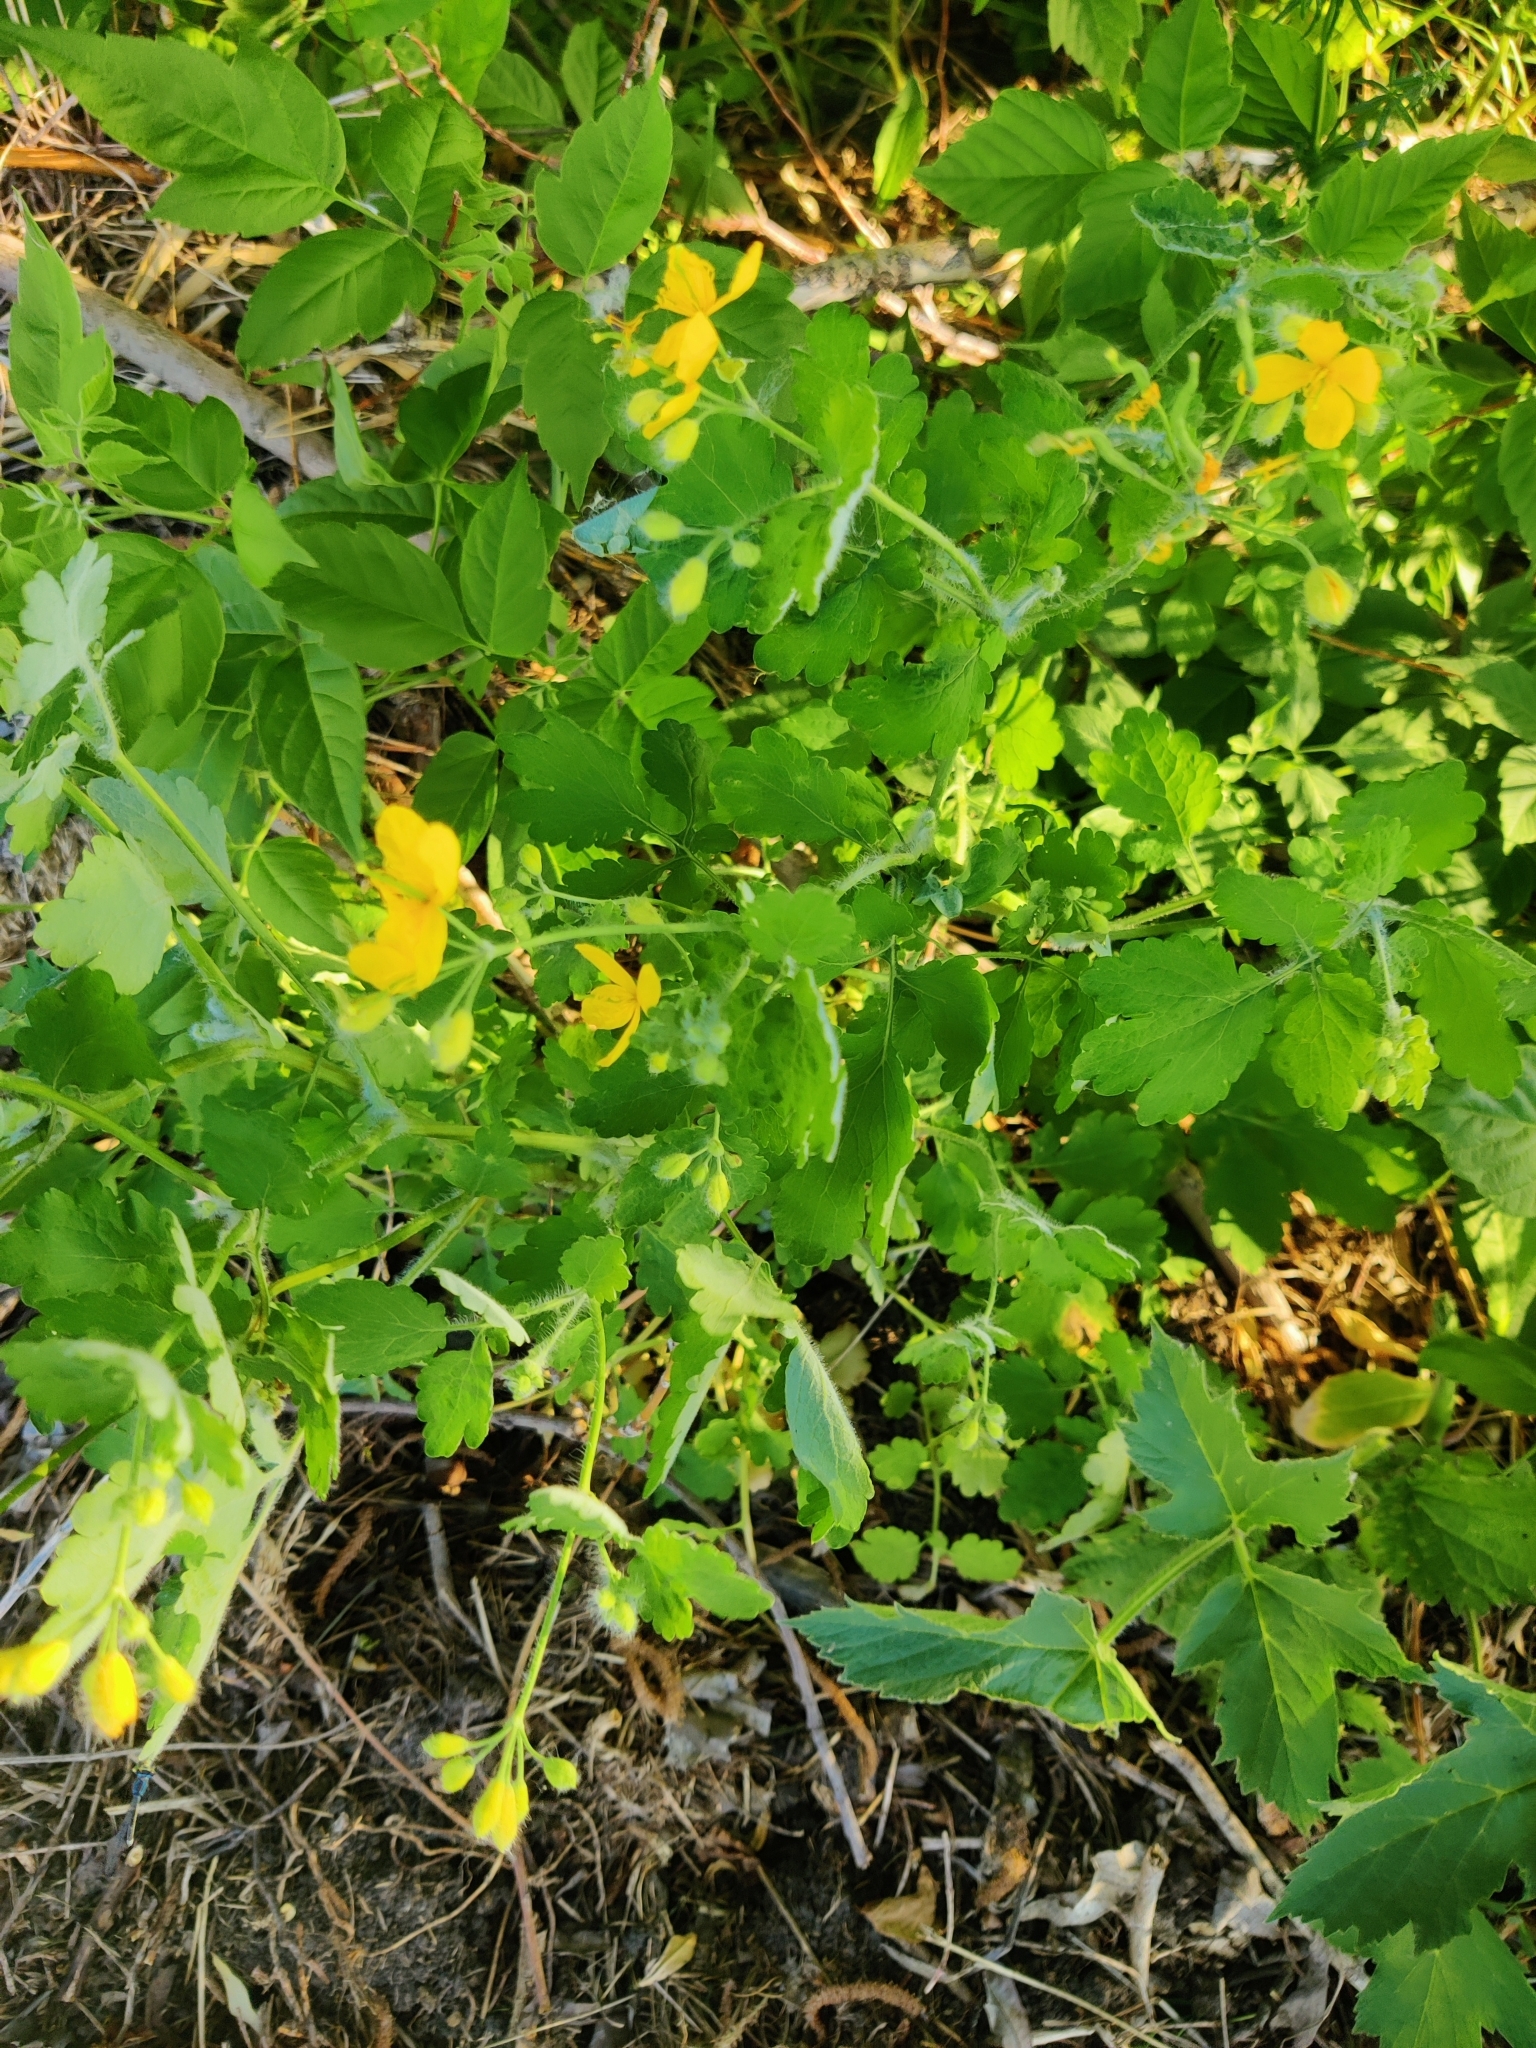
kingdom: Plantae
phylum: Tracheophyta
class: Magnoliopsida
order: Ranunculales
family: Papaveraceae
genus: Chelidonium
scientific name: Chelidonium majus
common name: Greater celandine
